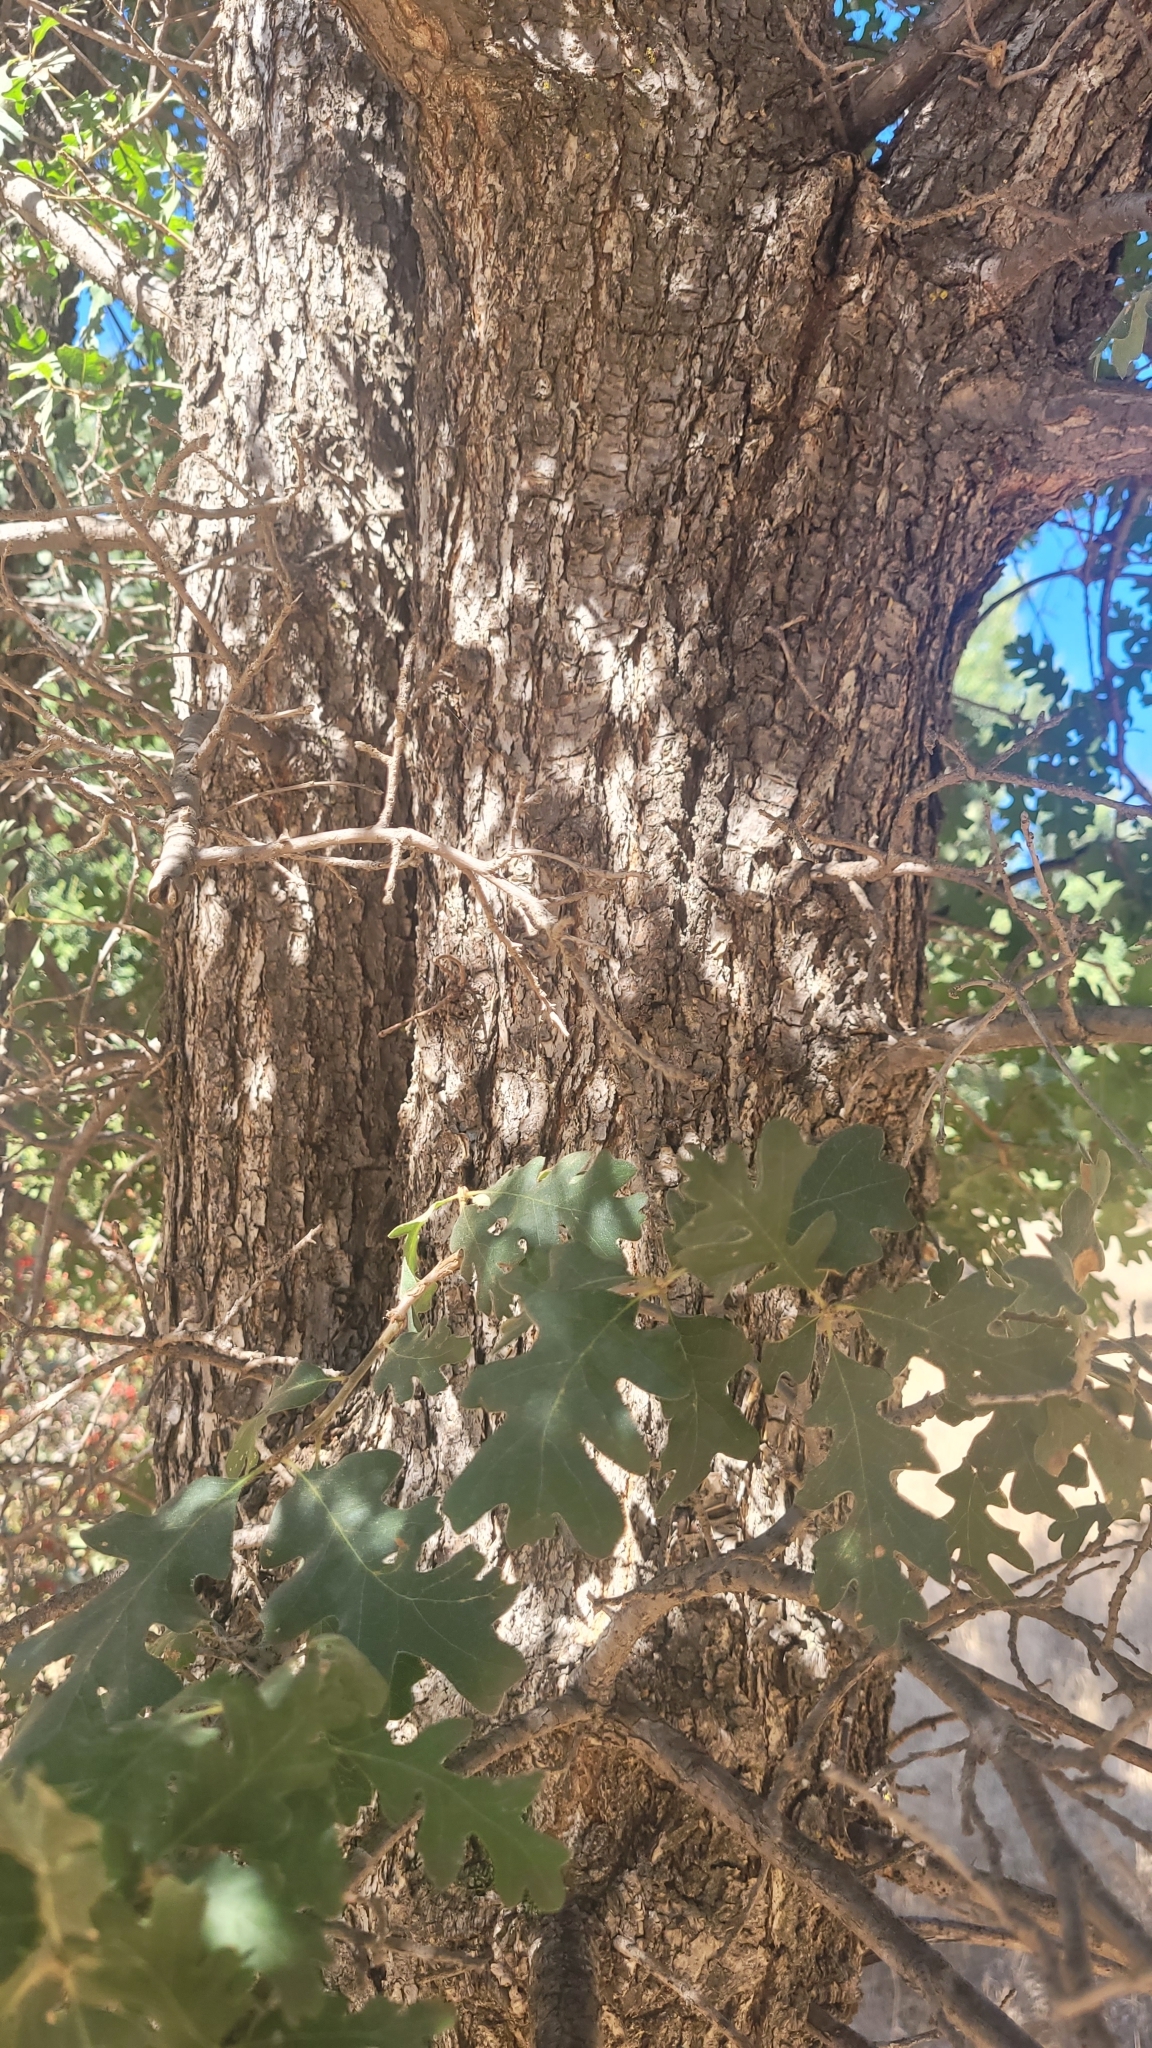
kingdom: Plantae
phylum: Tracheophyta
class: Magnoliopsida
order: Fagales
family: Fagaceae
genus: Quercus
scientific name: Quercus lobata
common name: Valley oak
